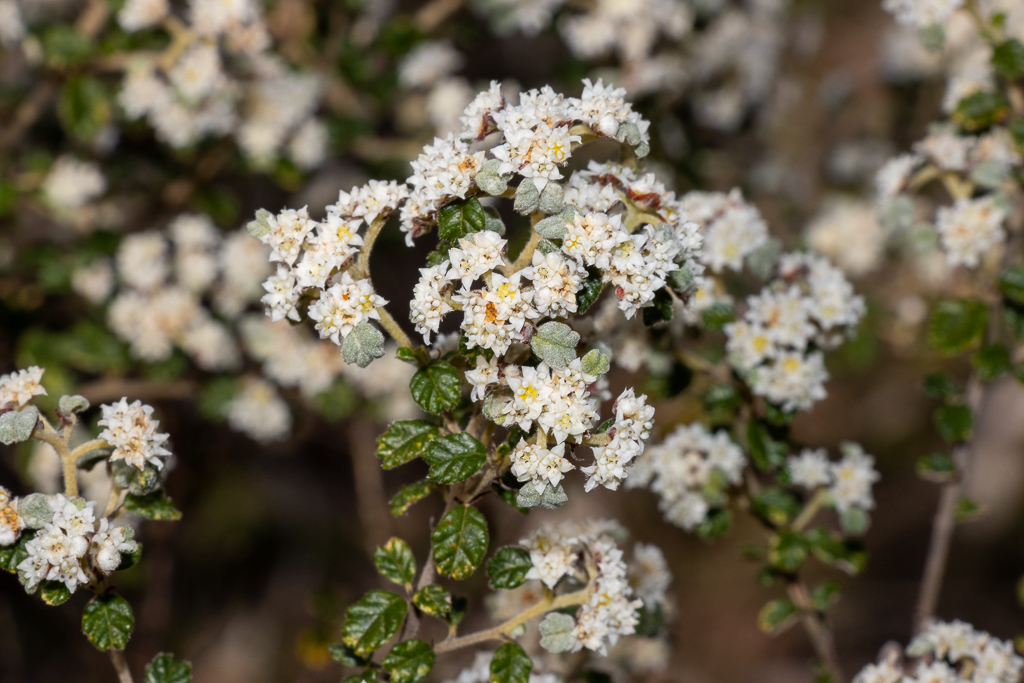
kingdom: Plantae
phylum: Tracheophyta
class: Magnoliopsida
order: Rosales
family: Rhamnaceae
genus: Spyridium
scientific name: Spyridium parvifolium
